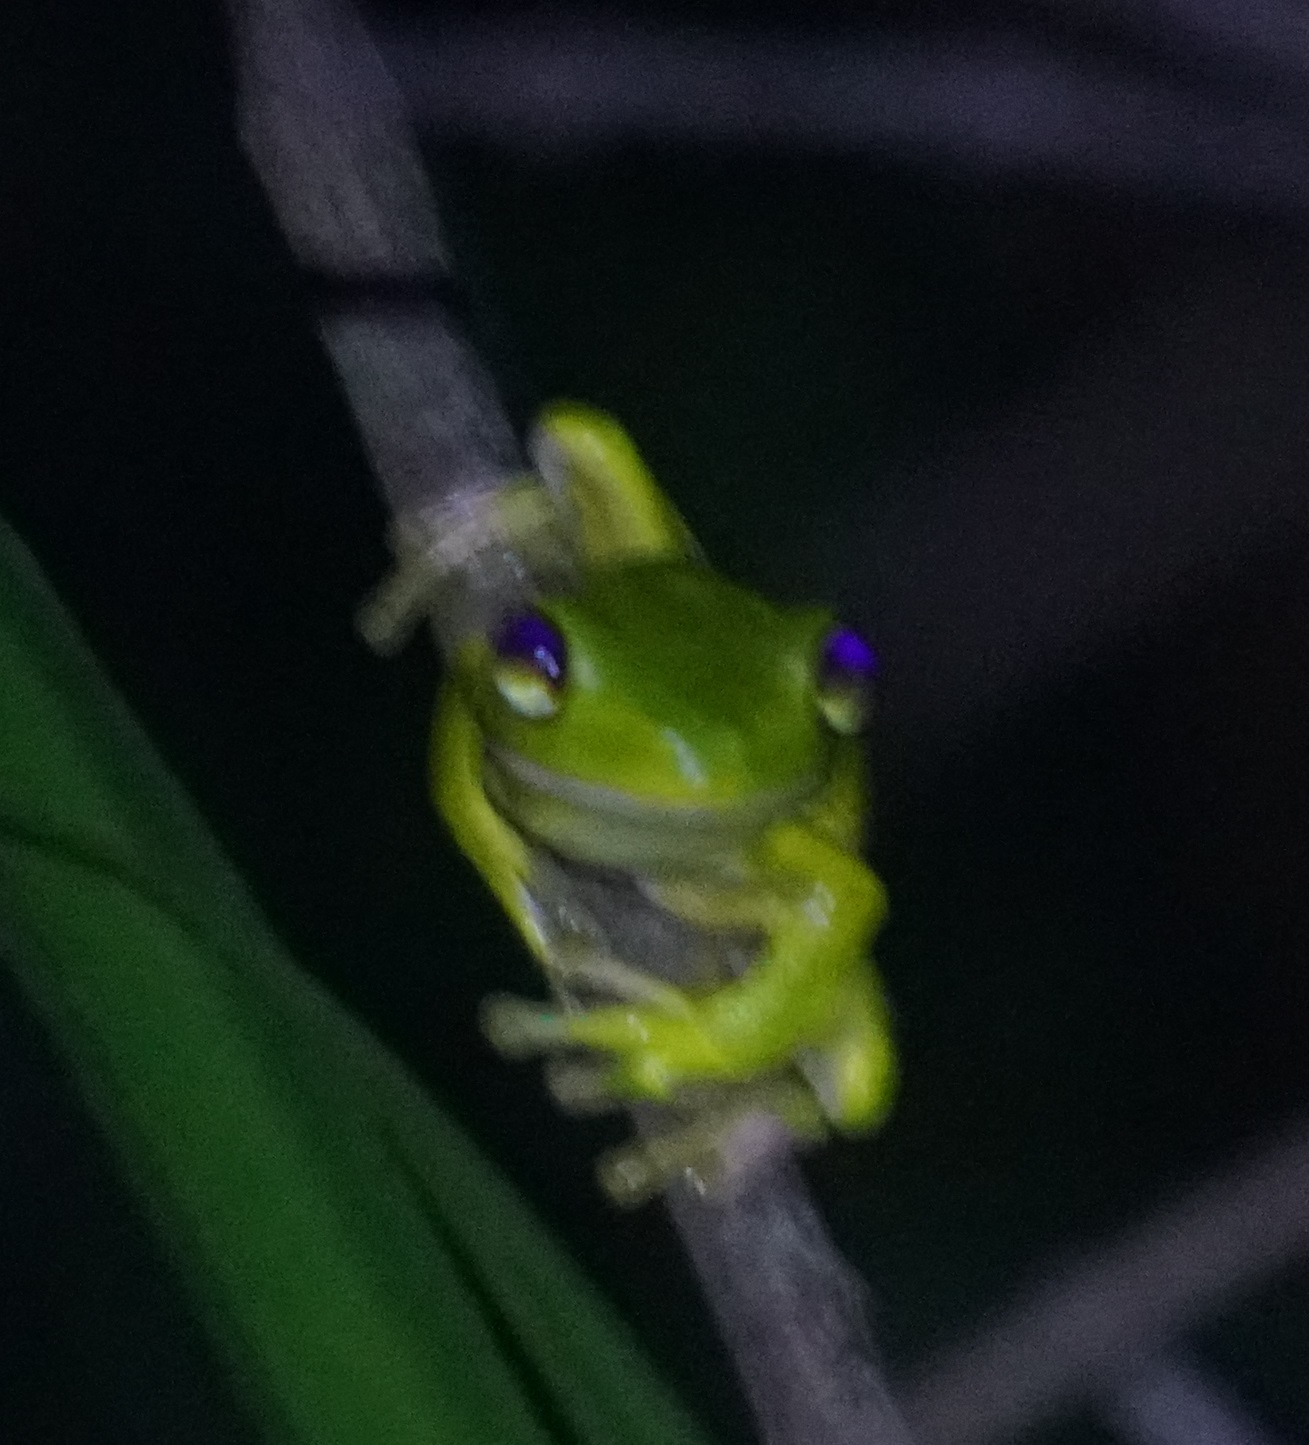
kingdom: Animalia
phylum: Chordata
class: Amphibia
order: Anura
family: Pelodryadidae
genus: Nyctimystes
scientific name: Nyctimystes infrafrenatus
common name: Australian giant treefrog
